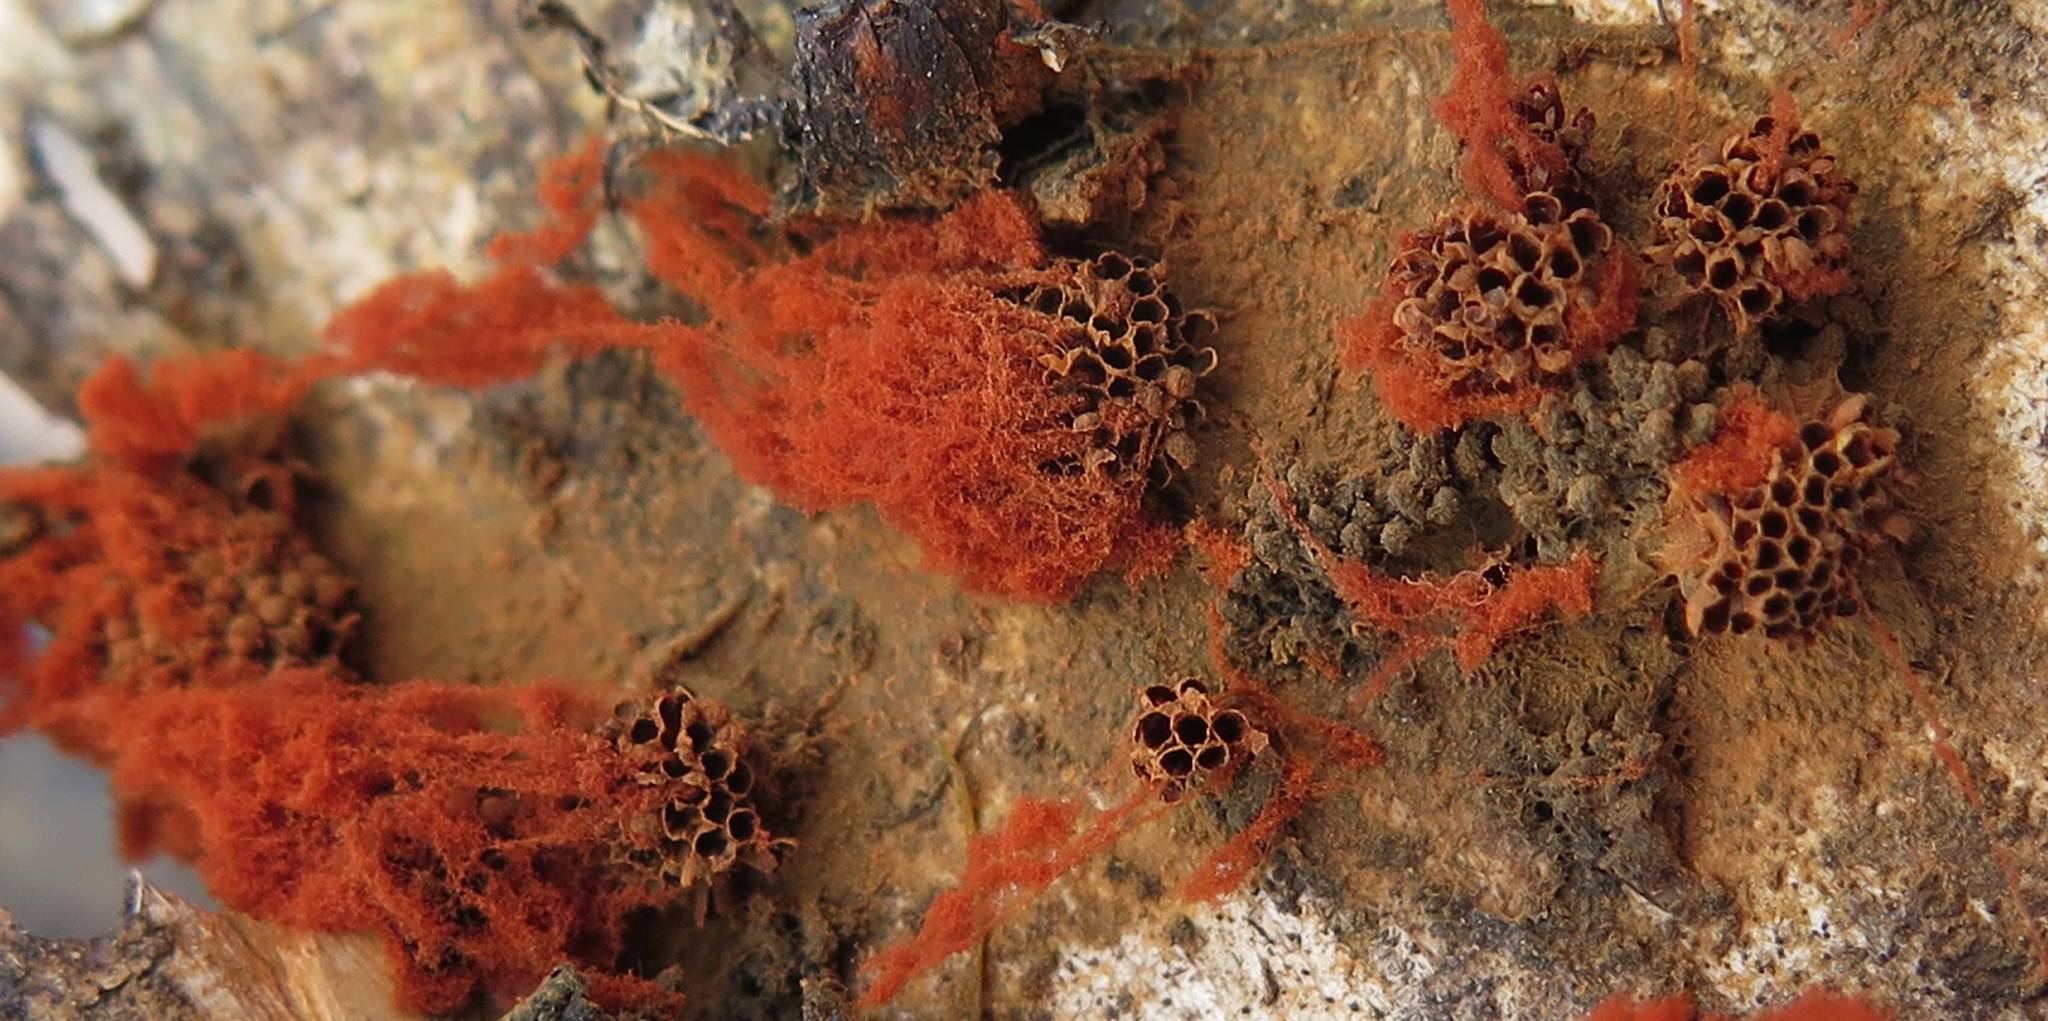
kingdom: Protozoa
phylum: Mycetozoa
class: Myxomycetes
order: Trichiales
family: Trichiaceae
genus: Metatrichia
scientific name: Metatrichia vesparia
